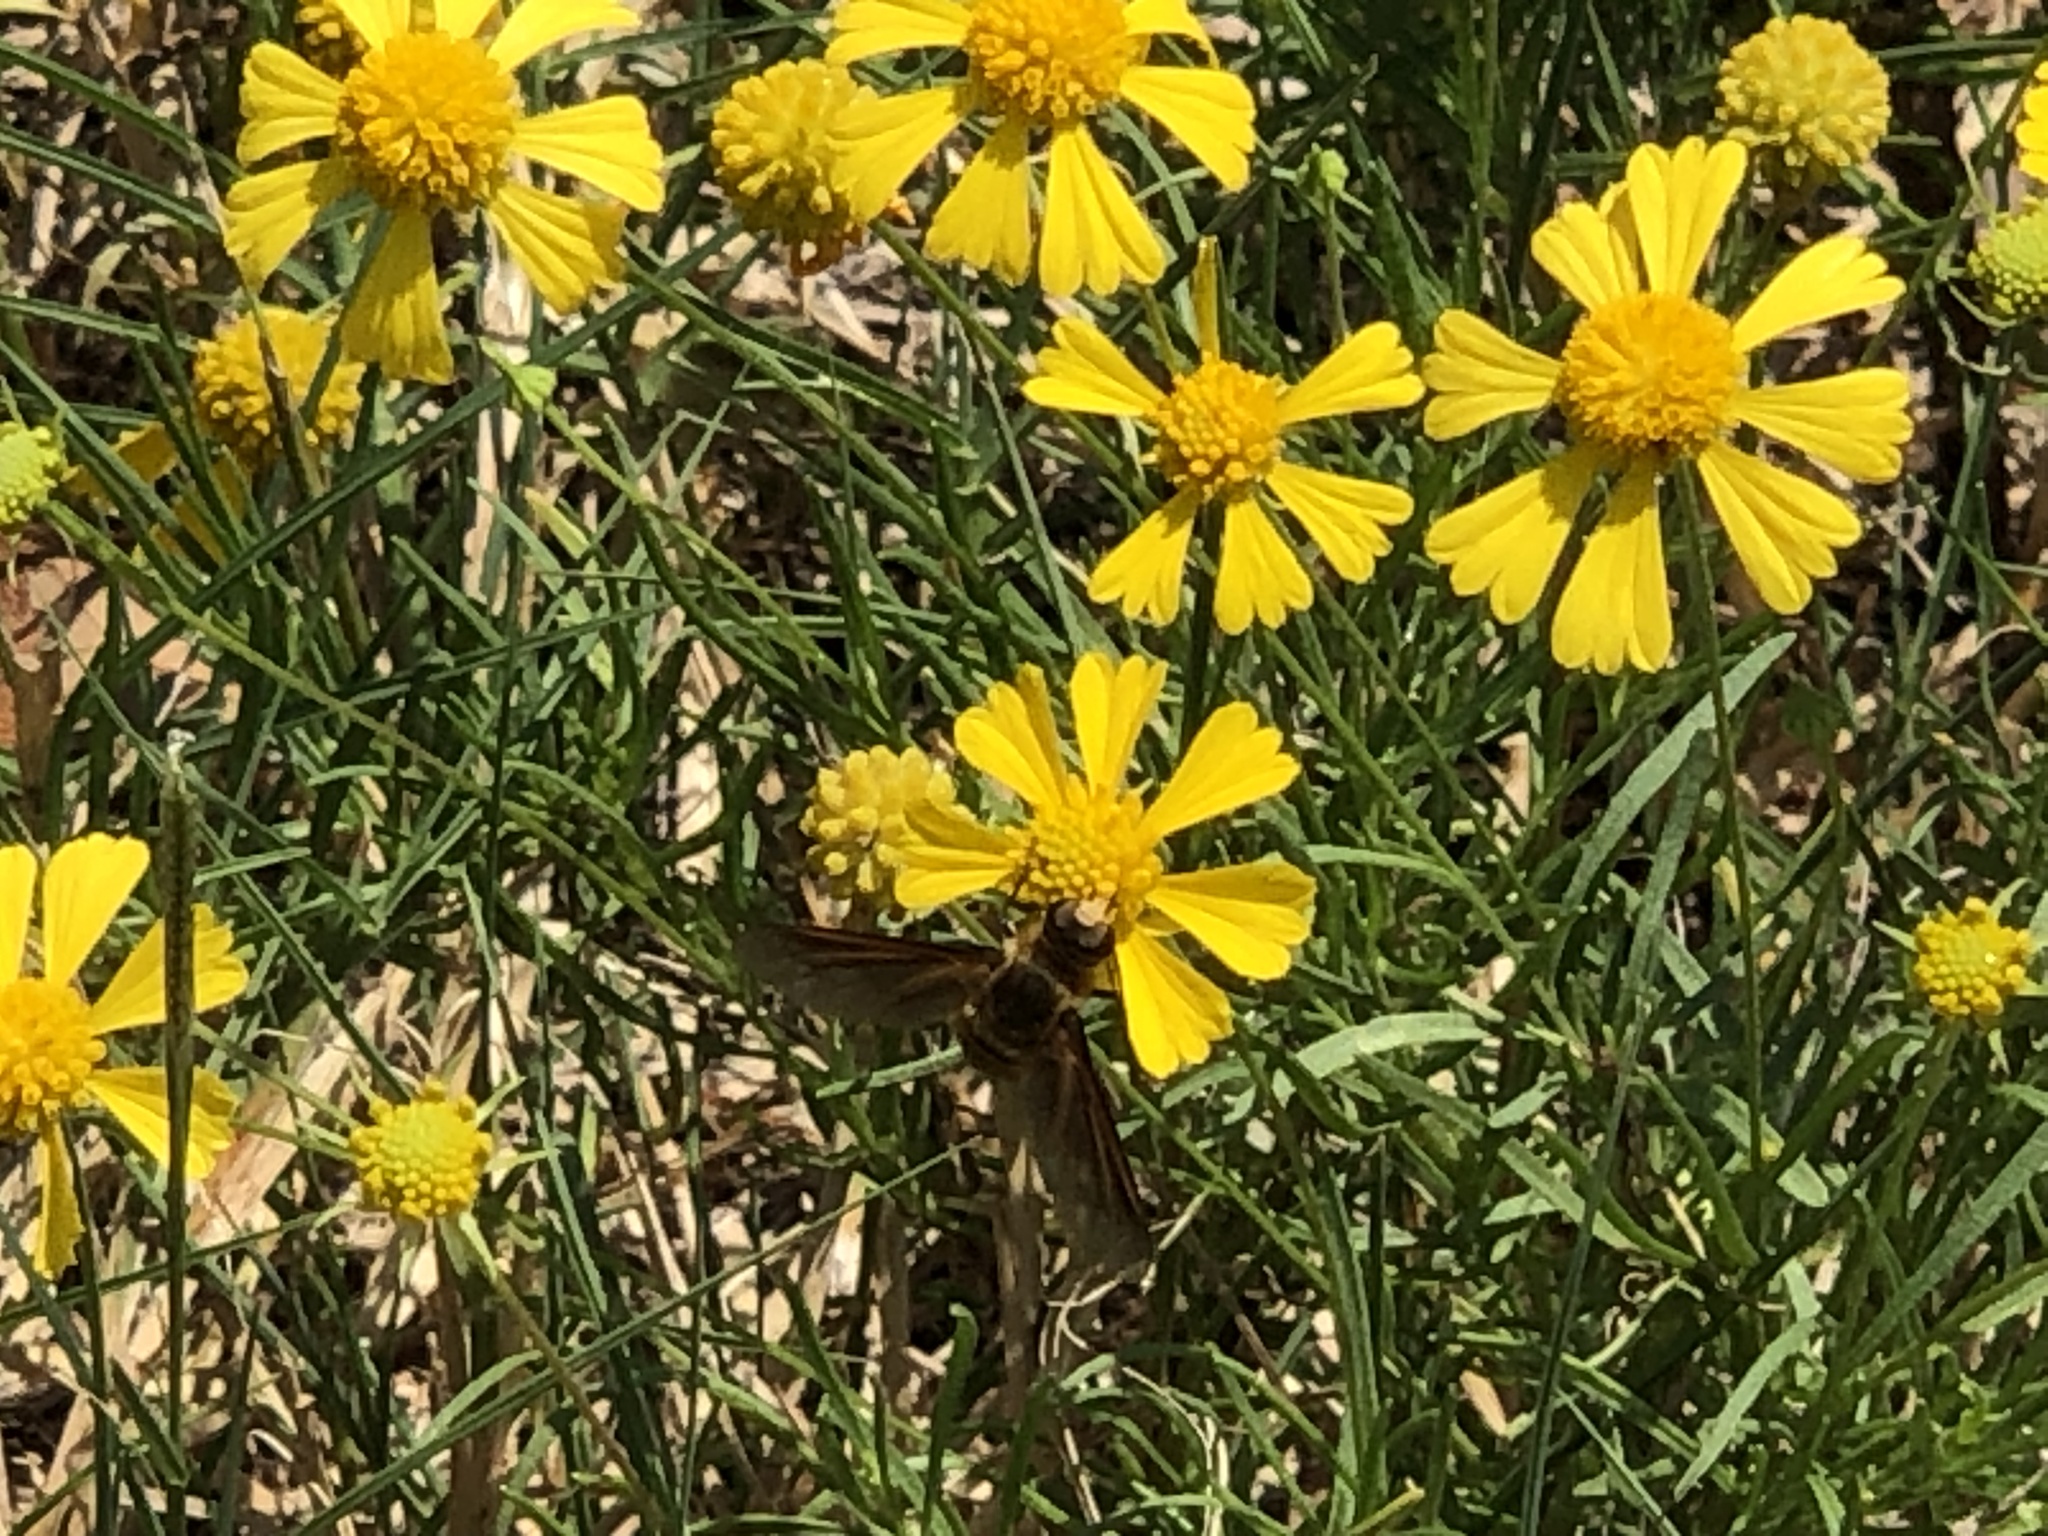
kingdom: Animalia
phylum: Arthropoda
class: Insecta
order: Diptera
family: Bombyliidae
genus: Poecilanthrax
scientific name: Poecilanthrax lucifer
